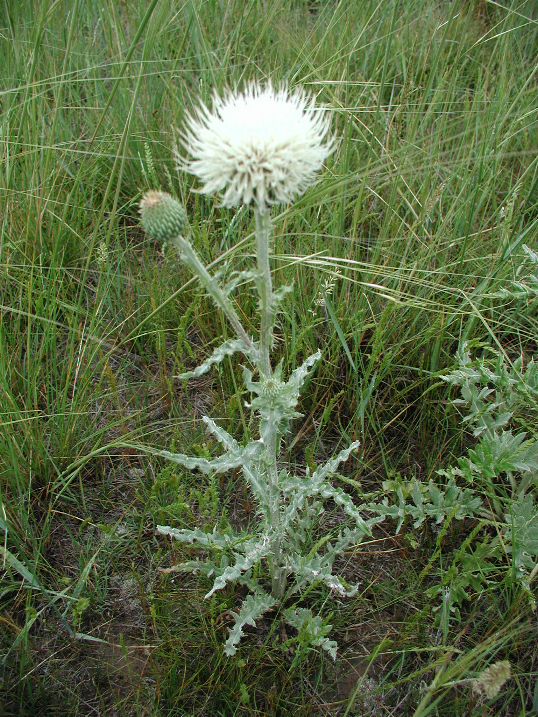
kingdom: Plantae
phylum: Tracheophyta
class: Magnoliopsida
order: Asterales
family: Asteraceae
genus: Cirsium
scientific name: Cirsium canescens
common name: Prairie thistle
